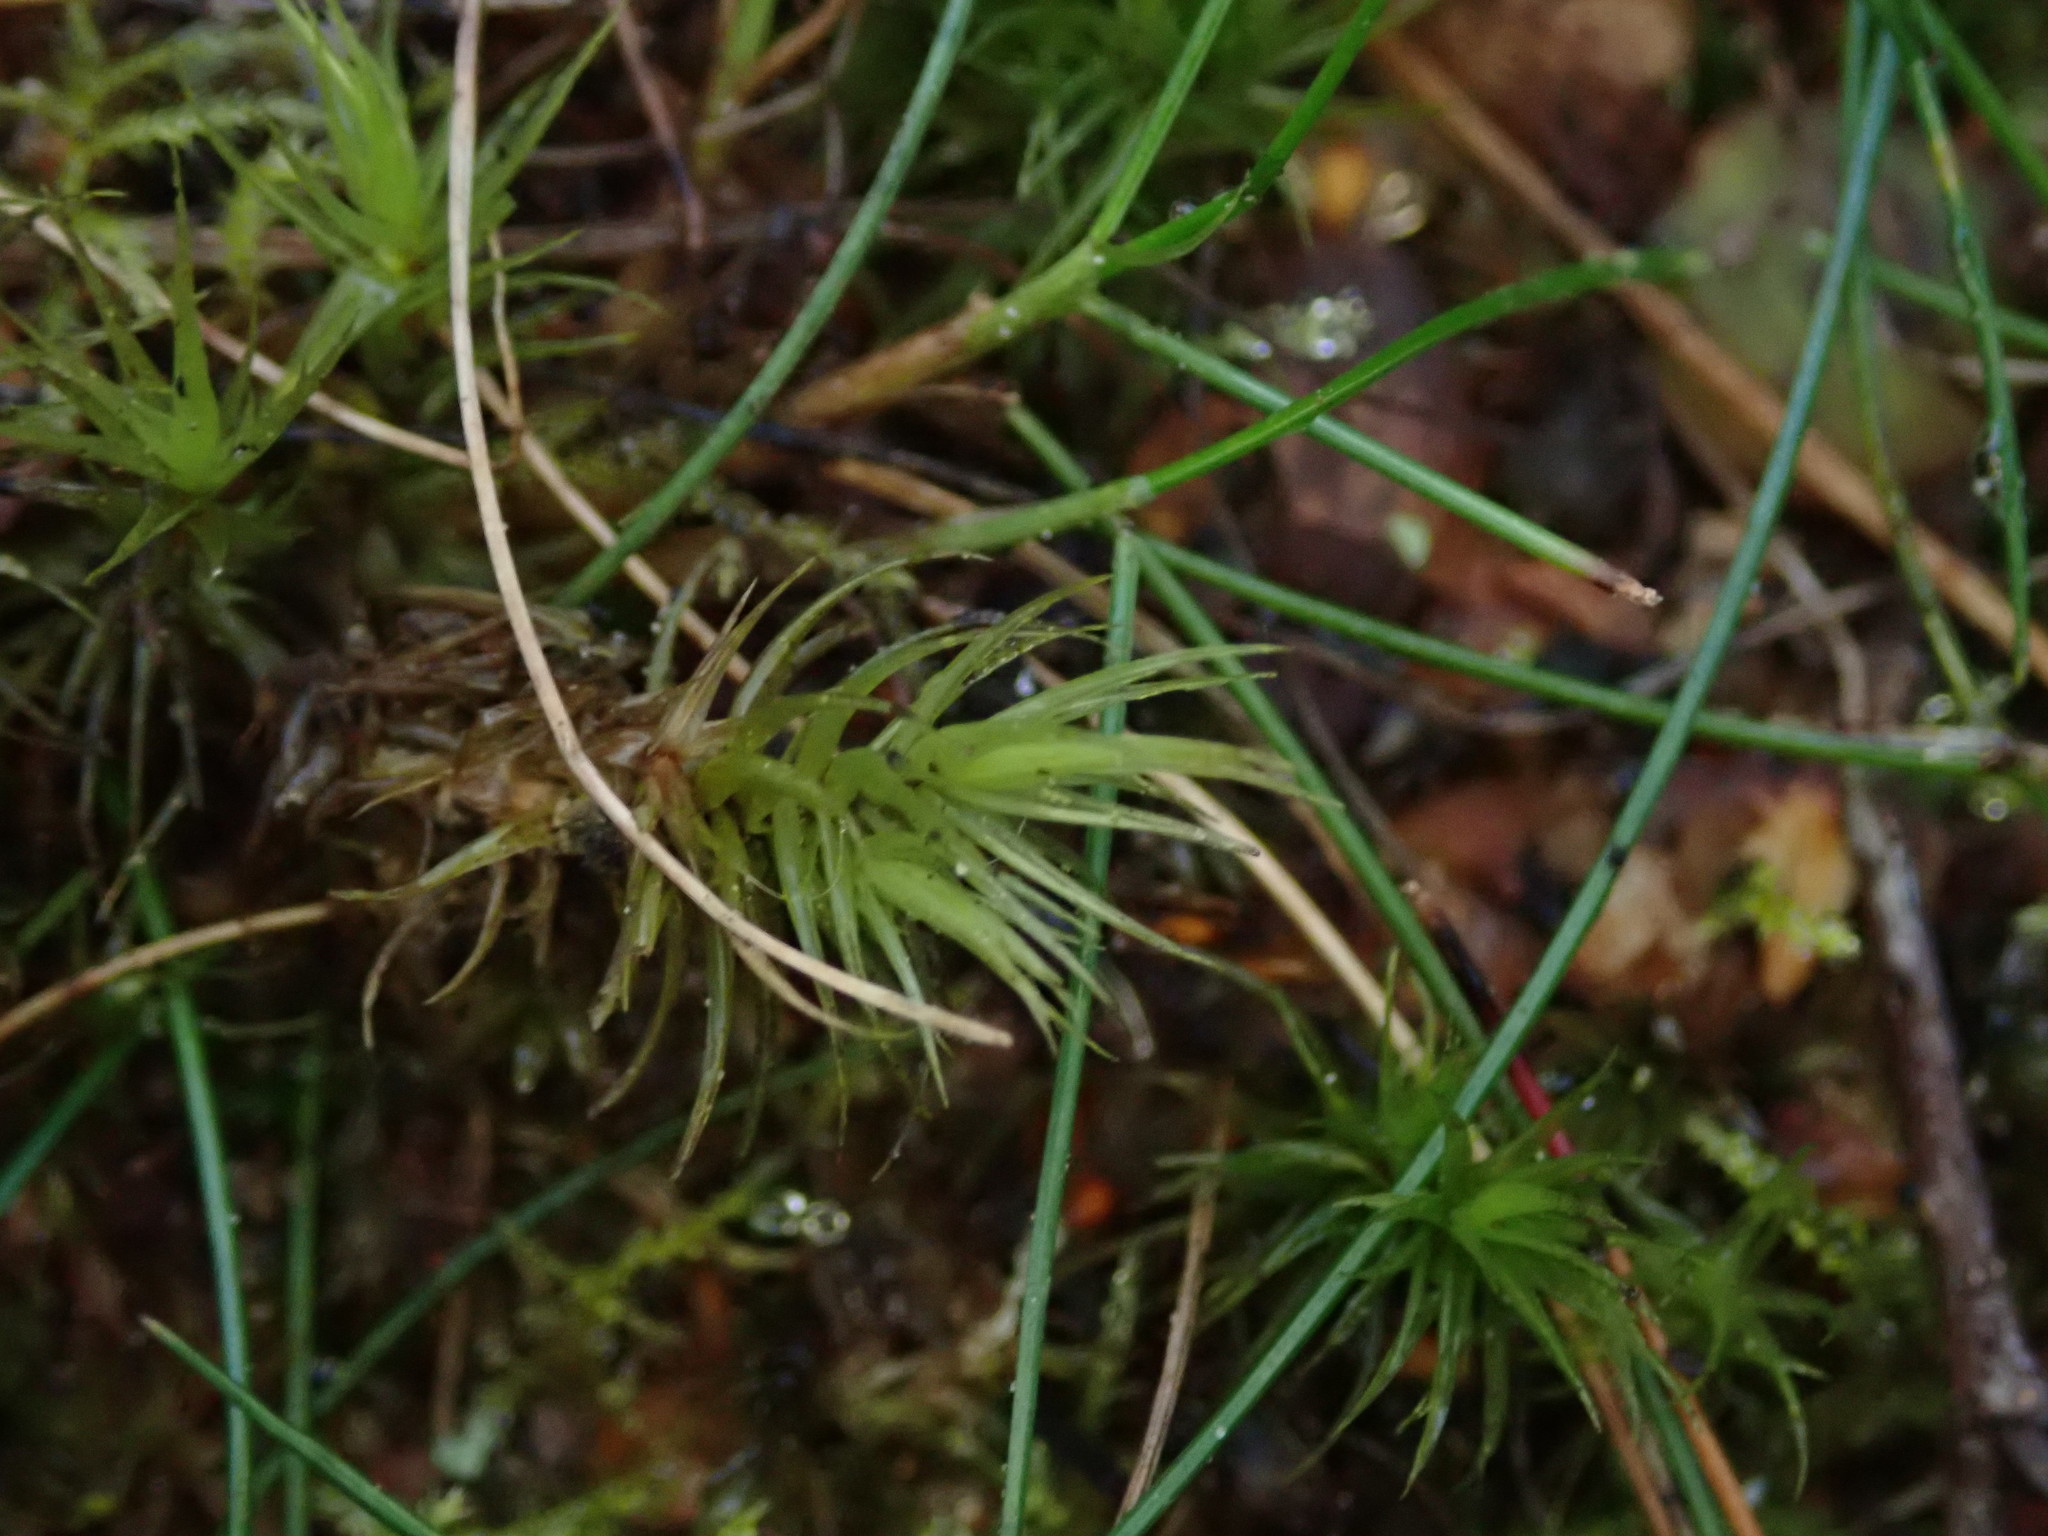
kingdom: Plantae
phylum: Bryophyta
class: Bryopsida
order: Dicranales
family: Dicranaceae
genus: Dicranum
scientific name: Dicranum scoparium
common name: Broom fork-moss
